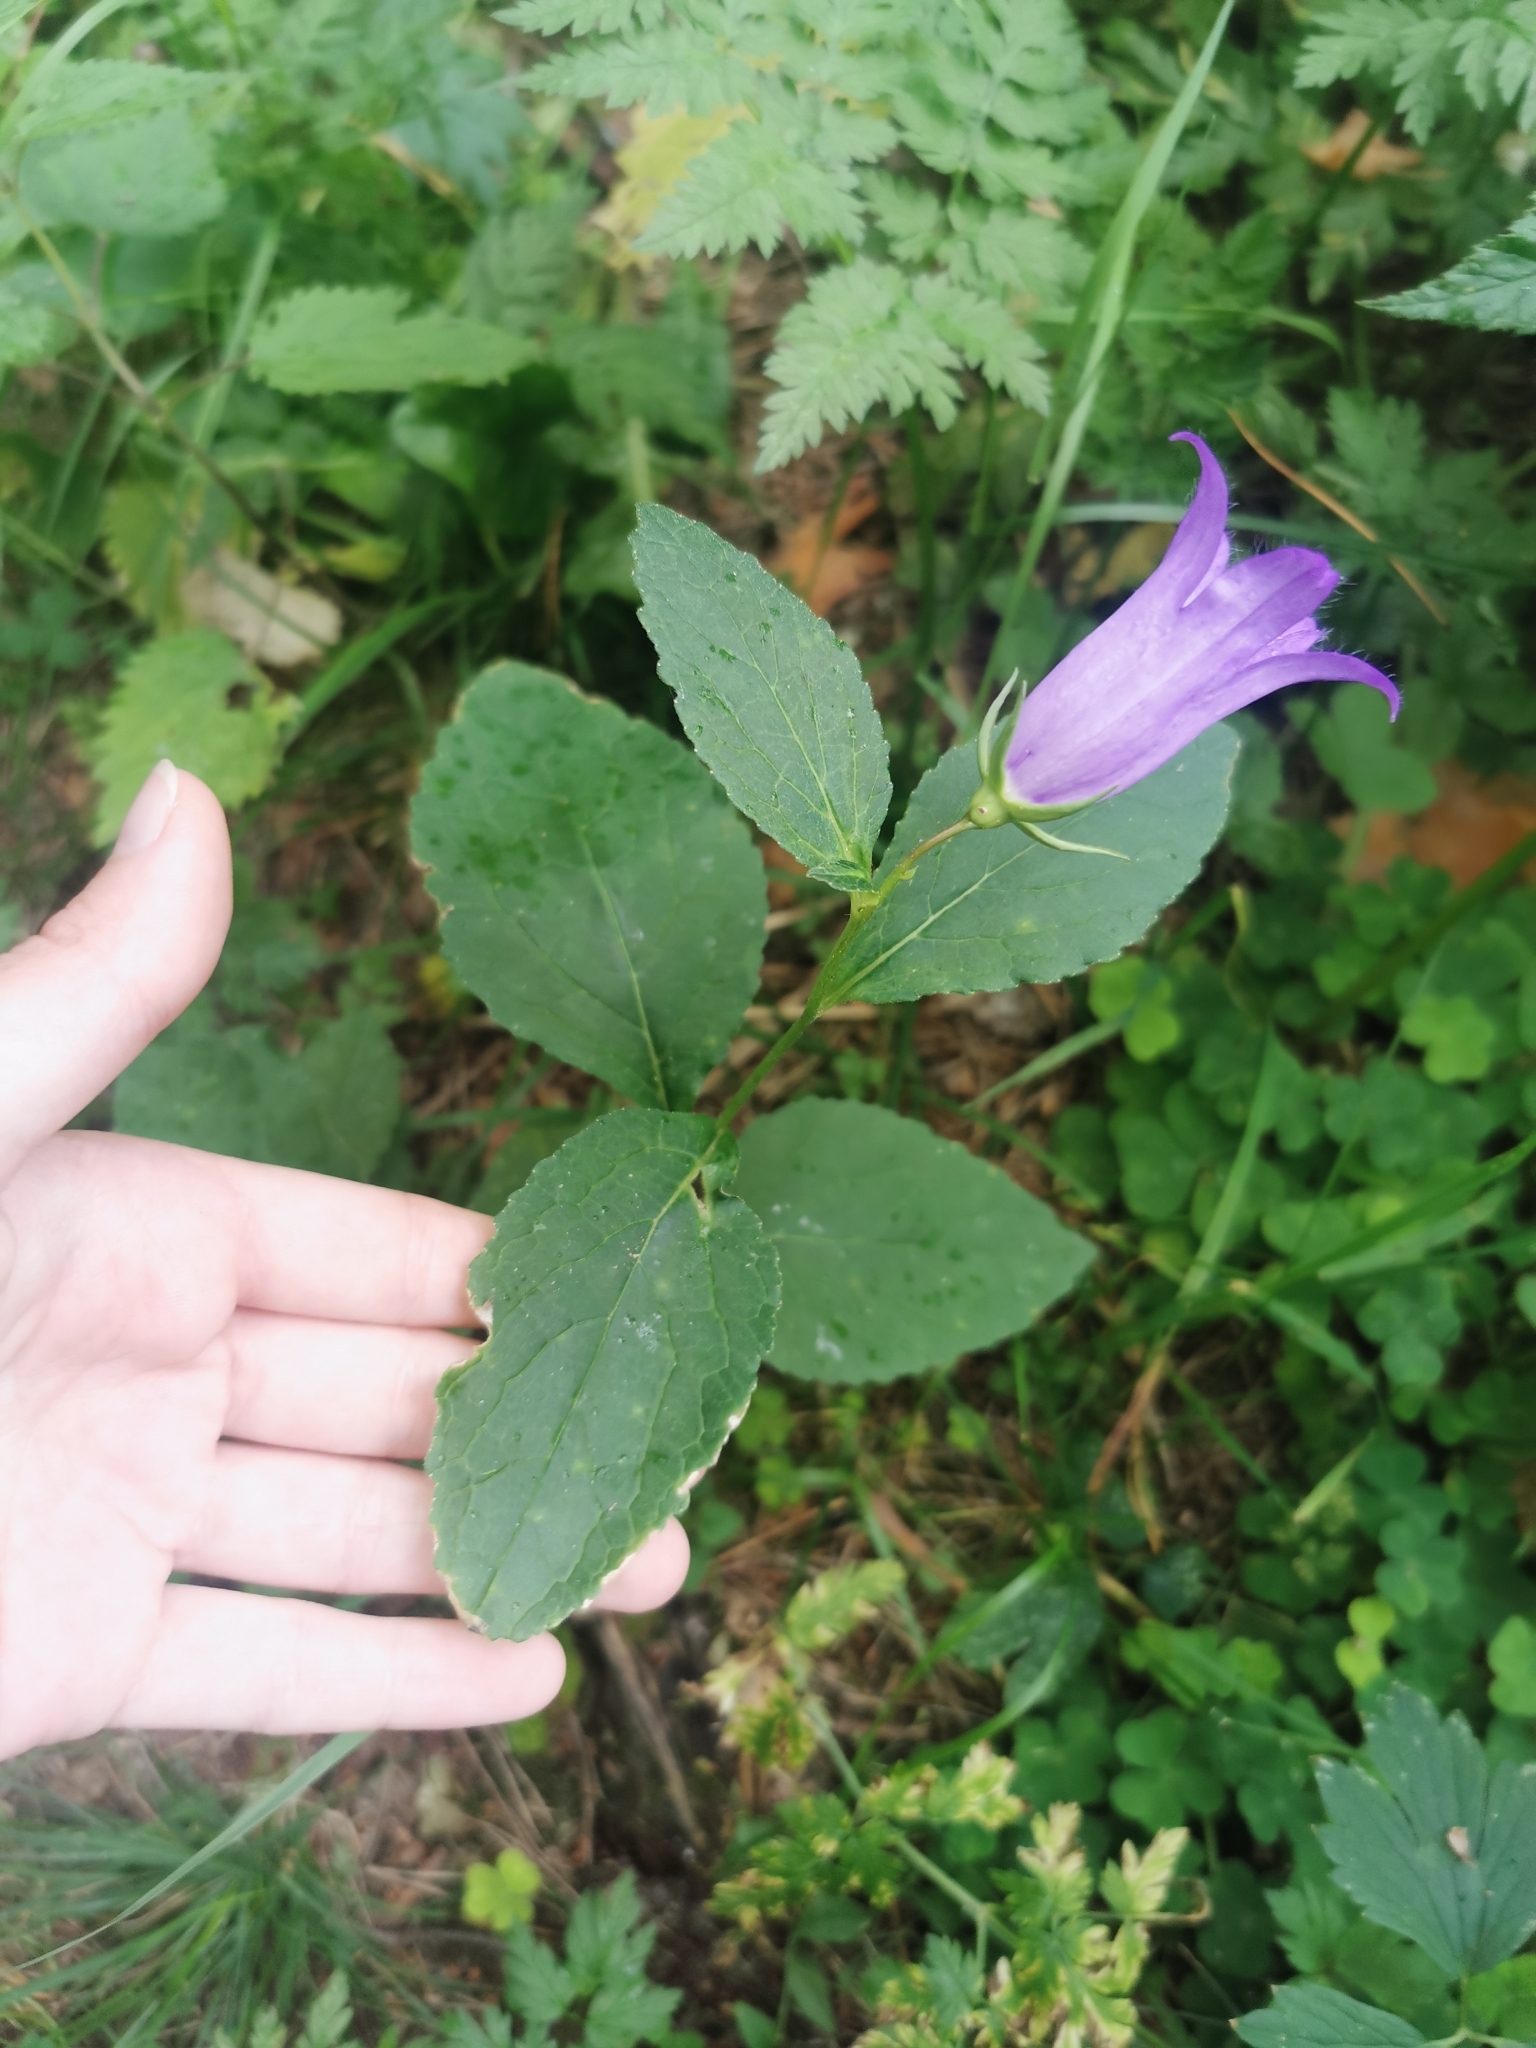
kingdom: Plantae
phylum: Tracheophyta
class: Magnoliopsida
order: Asterales
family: Campanulaceae
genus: Campanula
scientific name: Campanula latifolia
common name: Giant bellflower
